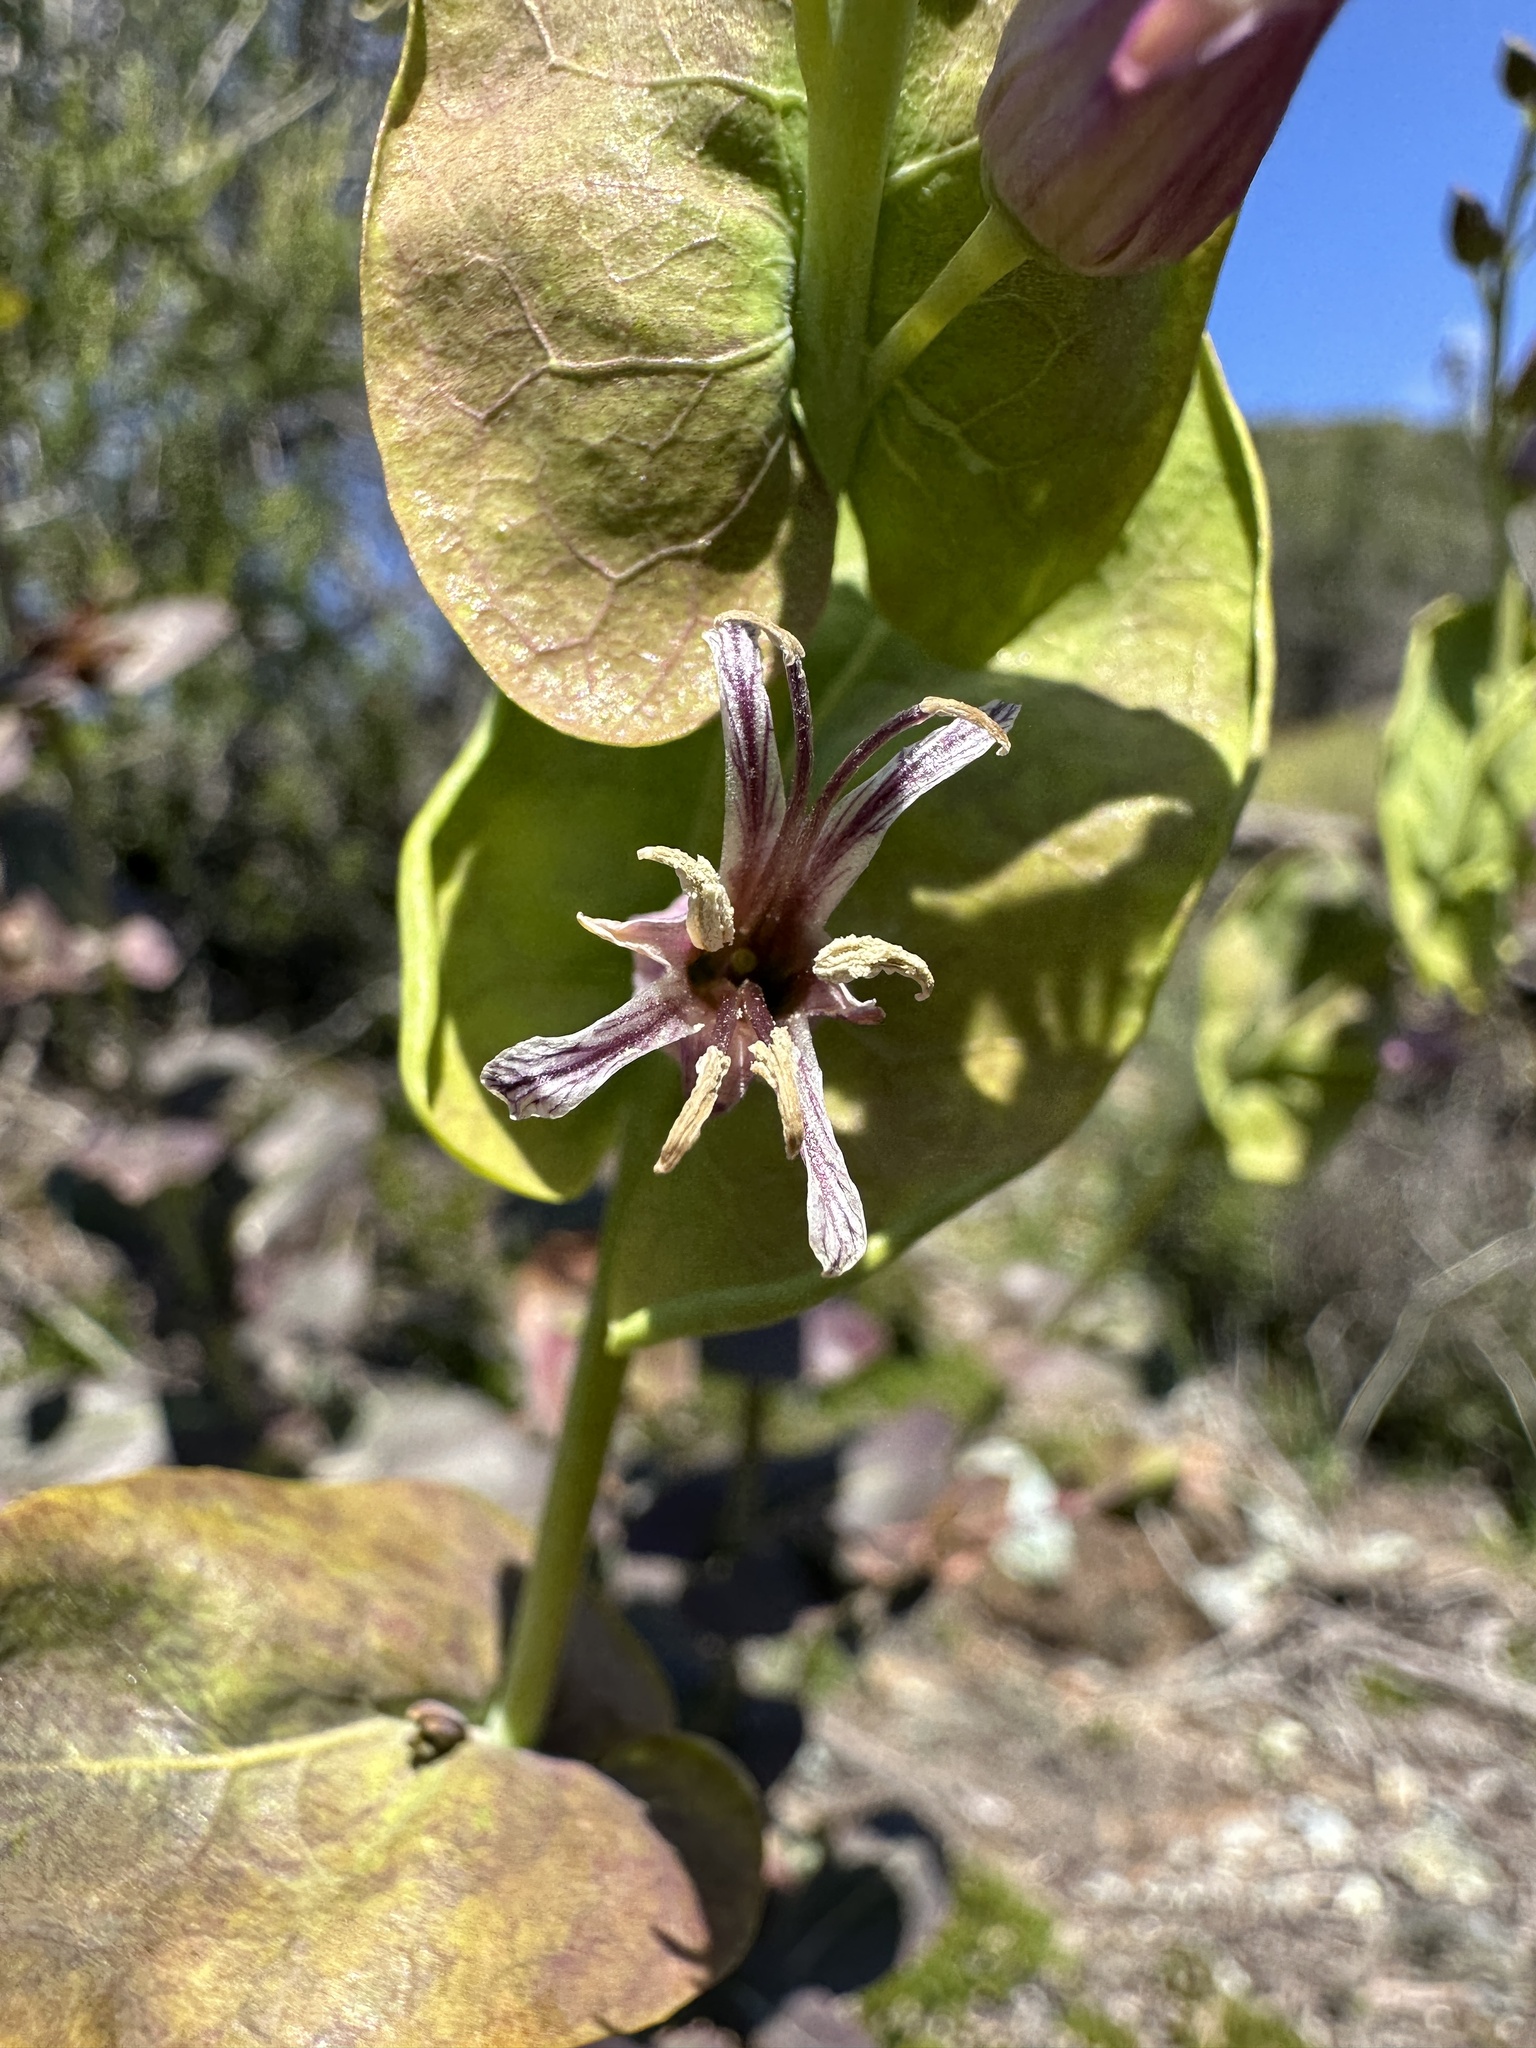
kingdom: Plantae
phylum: Tracheophyta
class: Magnoliopsida
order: Brassicales
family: Brassicaceae
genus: Streptanthus
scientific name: Streptanthus tortuosus
